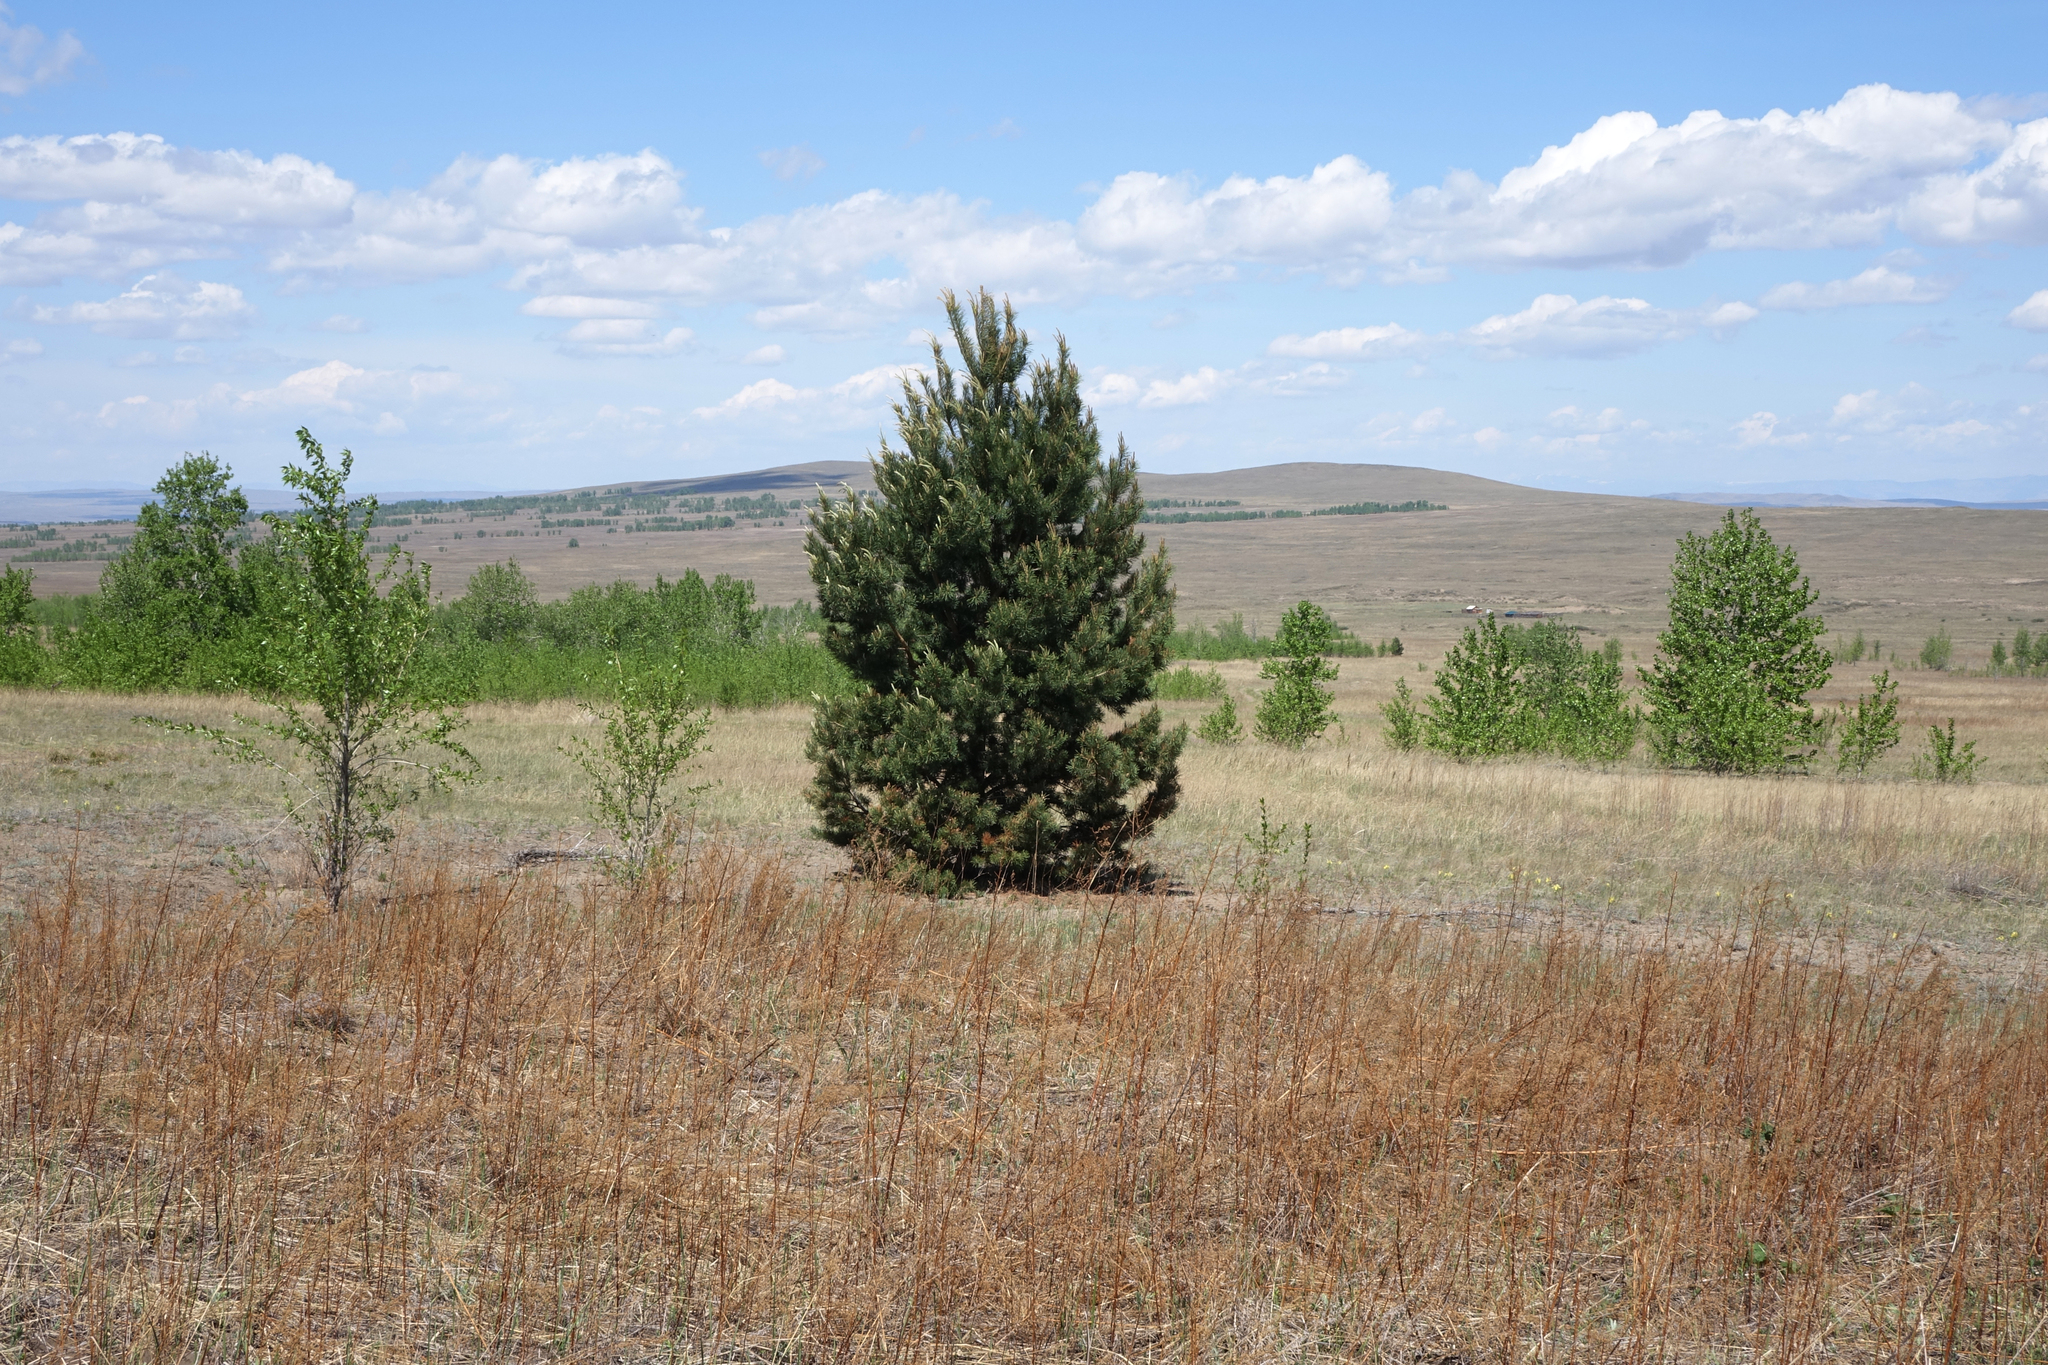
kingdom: Plantae
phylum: Tracheophyta
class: Pinopsida
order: Pinales
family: Pinaceae
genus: Pinus
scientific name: Pinus sylvestris
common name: Scots pine
